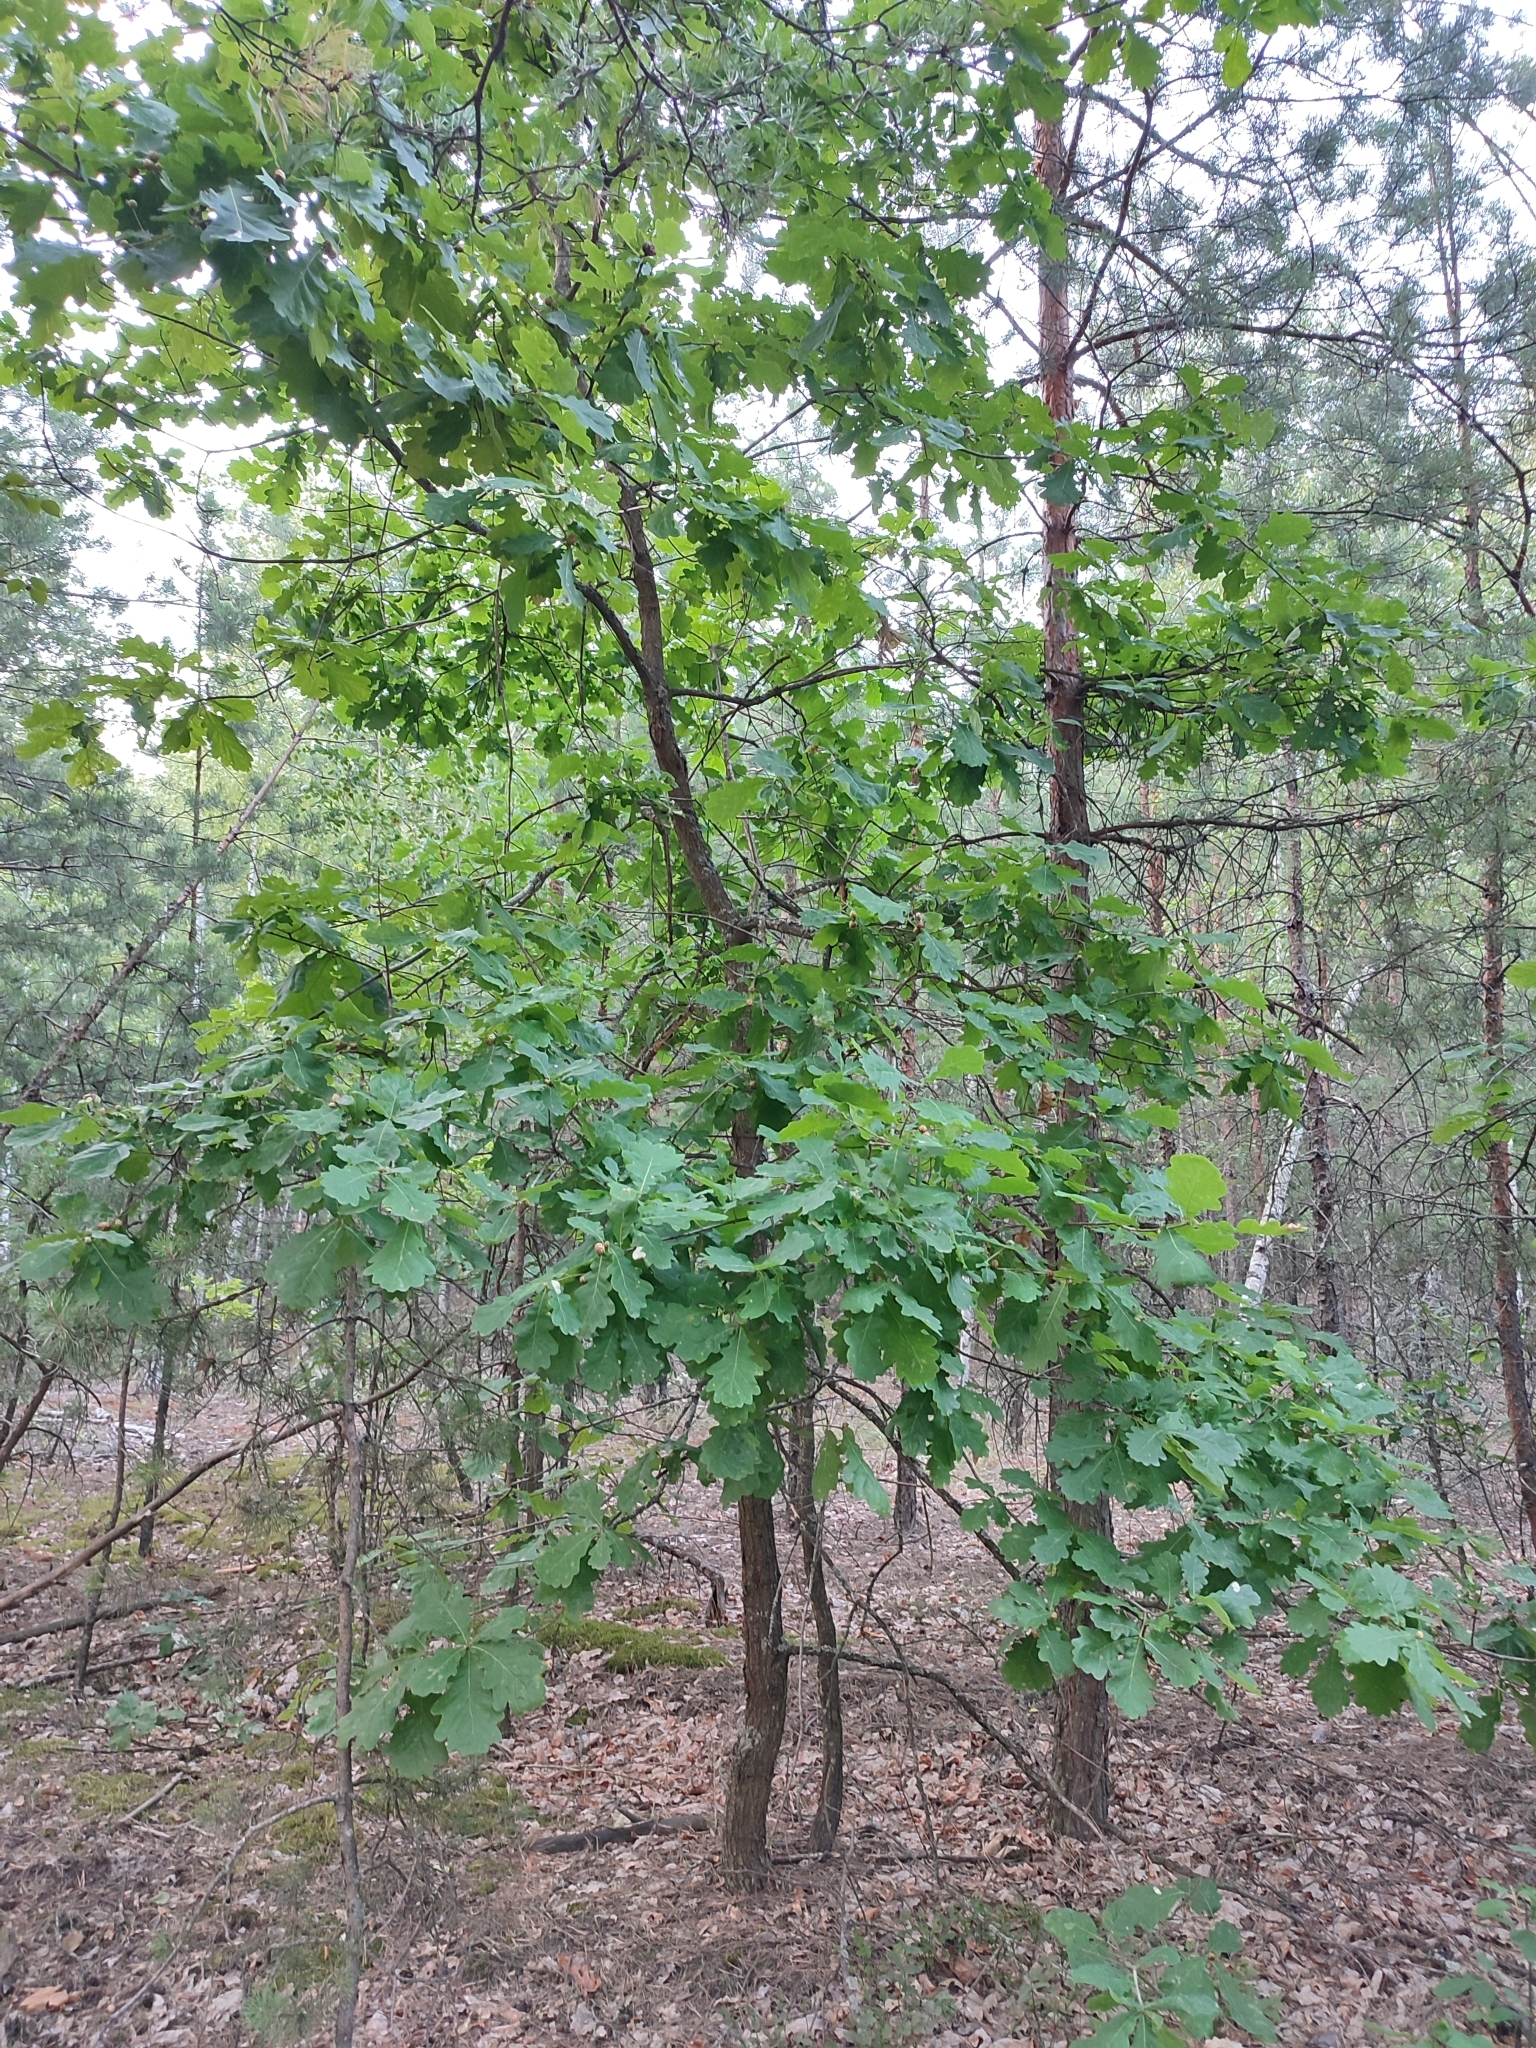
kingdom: Plantae
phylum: Tracheophyta
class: Magnoliopsida
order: Fagales
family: Fagaceae
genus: Quercus
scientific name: Quercus robur
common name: Pedunculate oak
